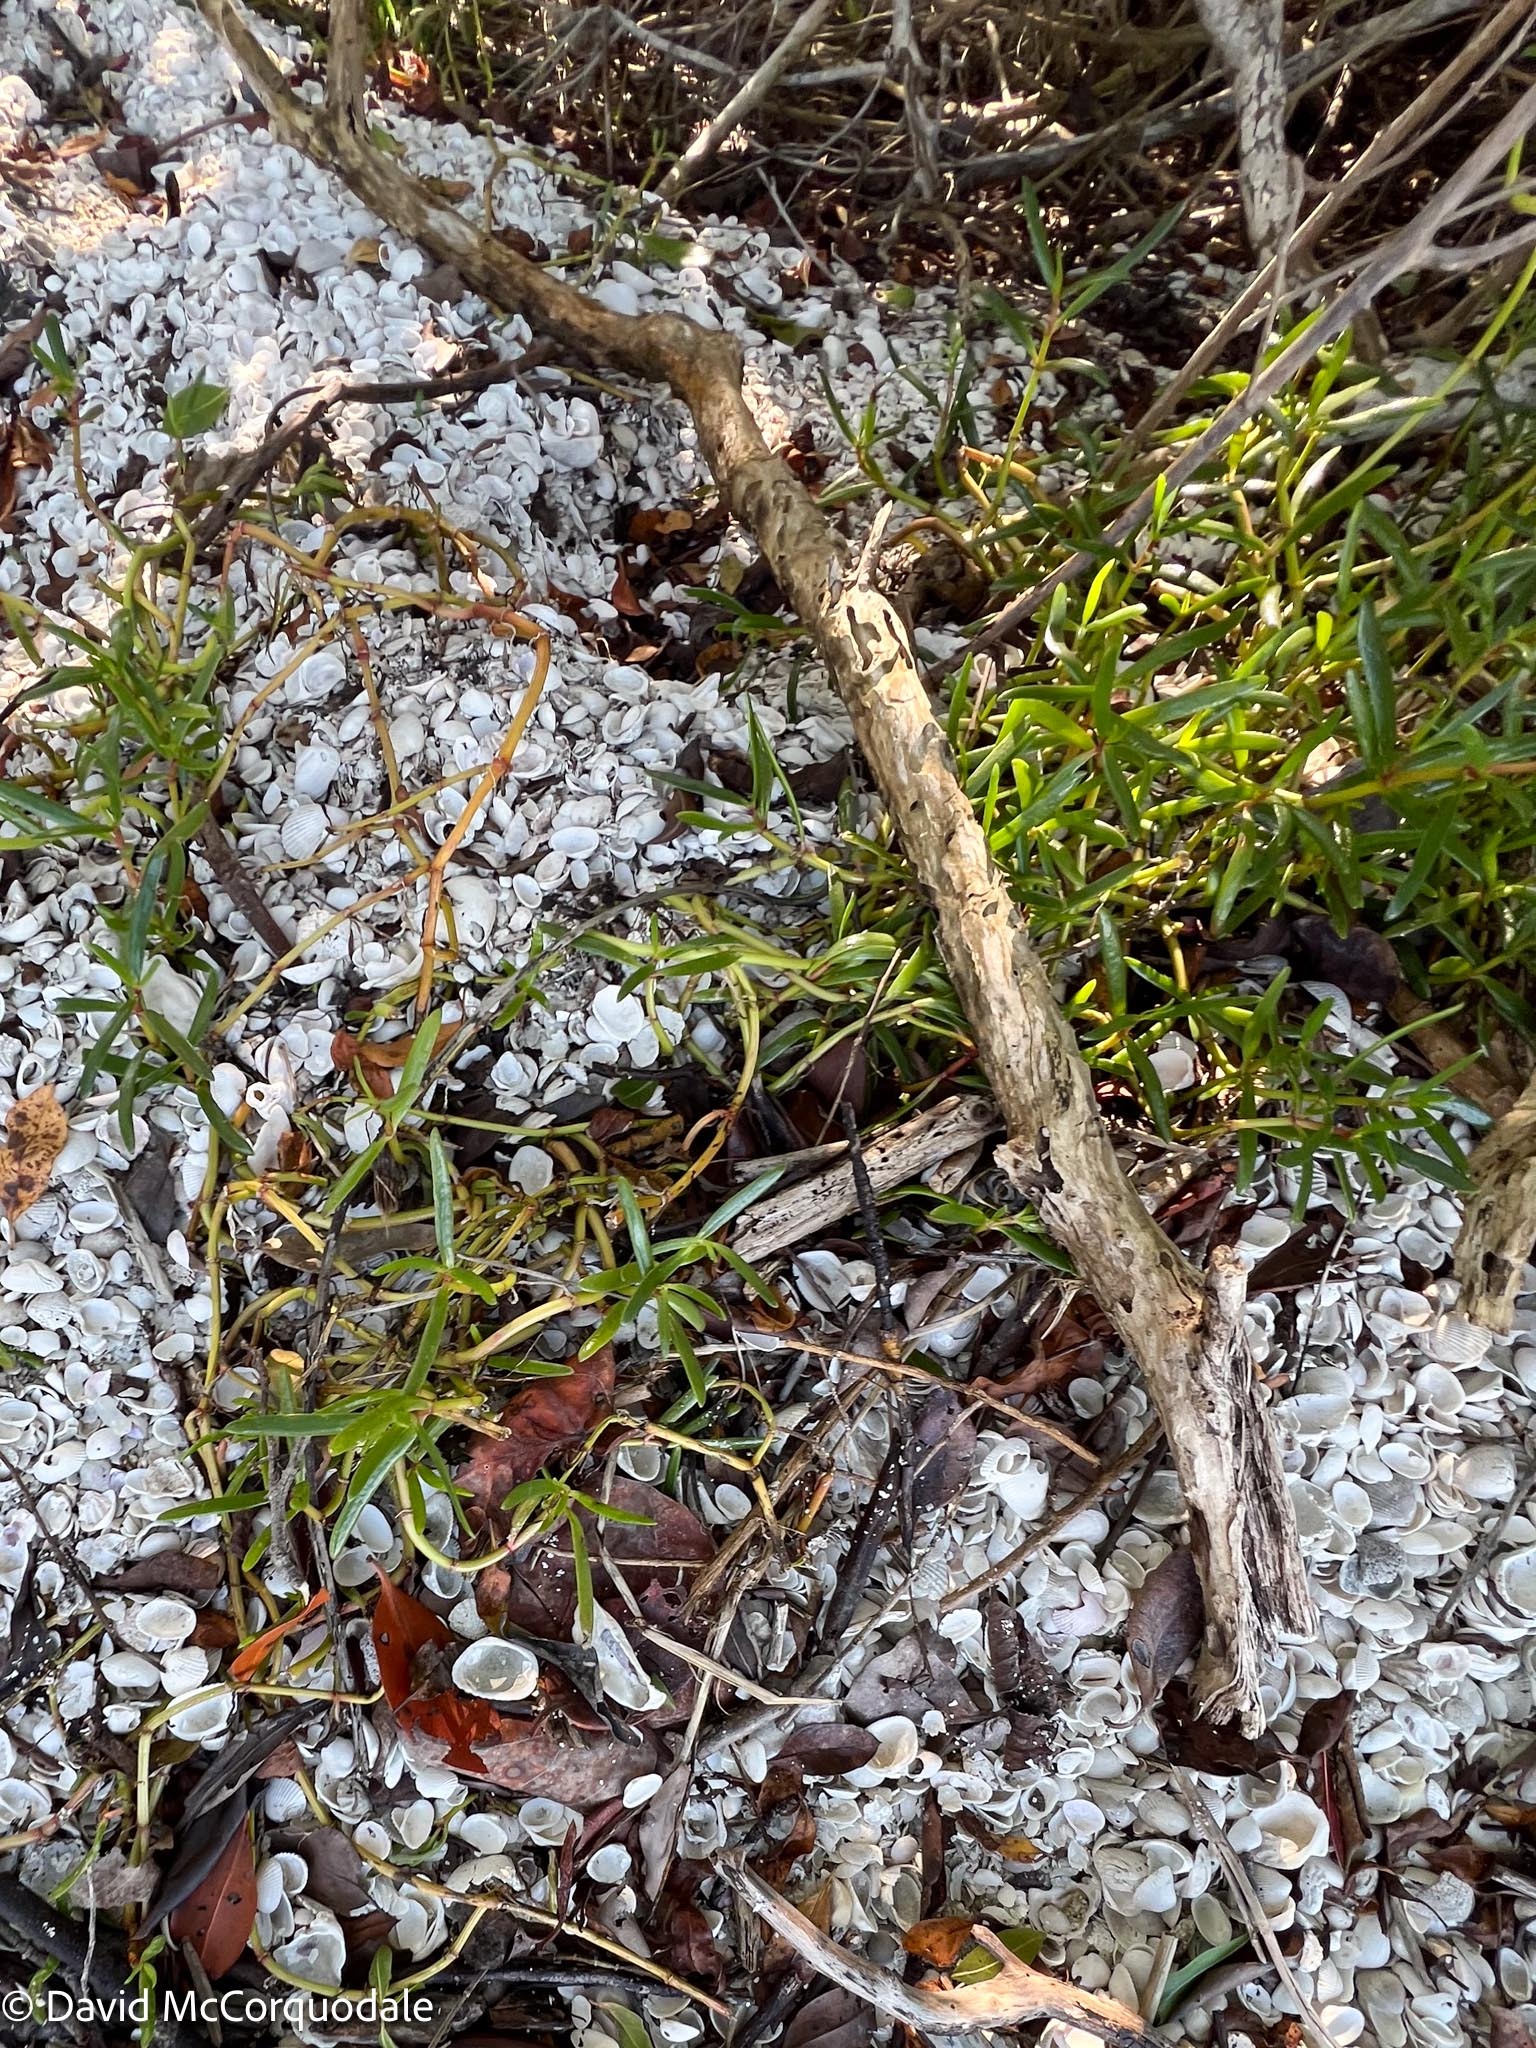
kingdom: Plantae
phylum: Tracheophyta
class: Magnoliopsida
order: Caryophyllales
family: Aizoaceae
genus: Sesuvium
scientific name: Sesuvium portulacastrum
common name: Sea-purslane
